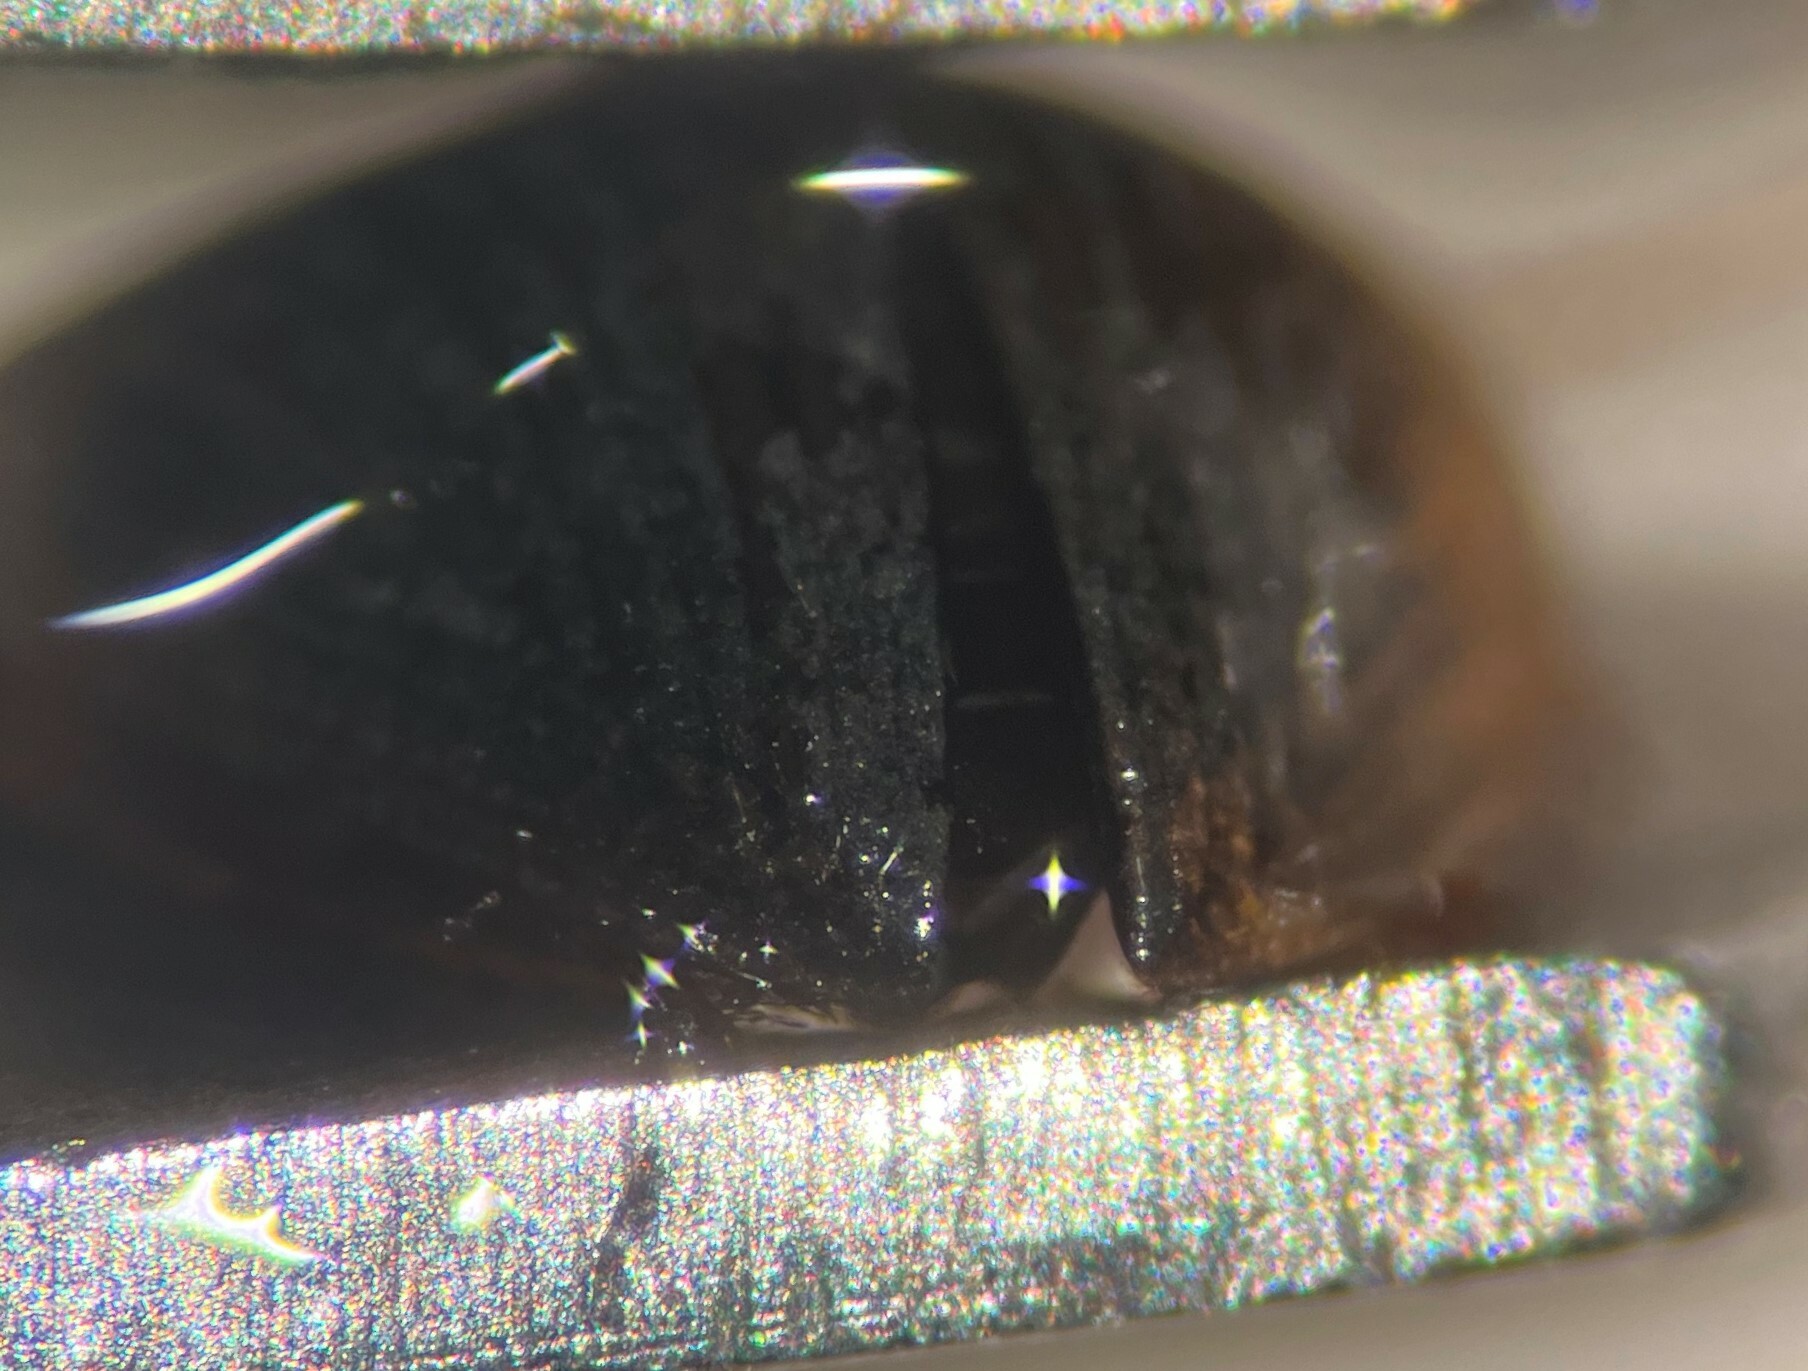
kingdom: Animalia
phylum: Arthropoda
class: Insecta
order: Coleoptera
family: Hydrophilidae
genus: Berosus
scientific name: Berosus peregrinus
